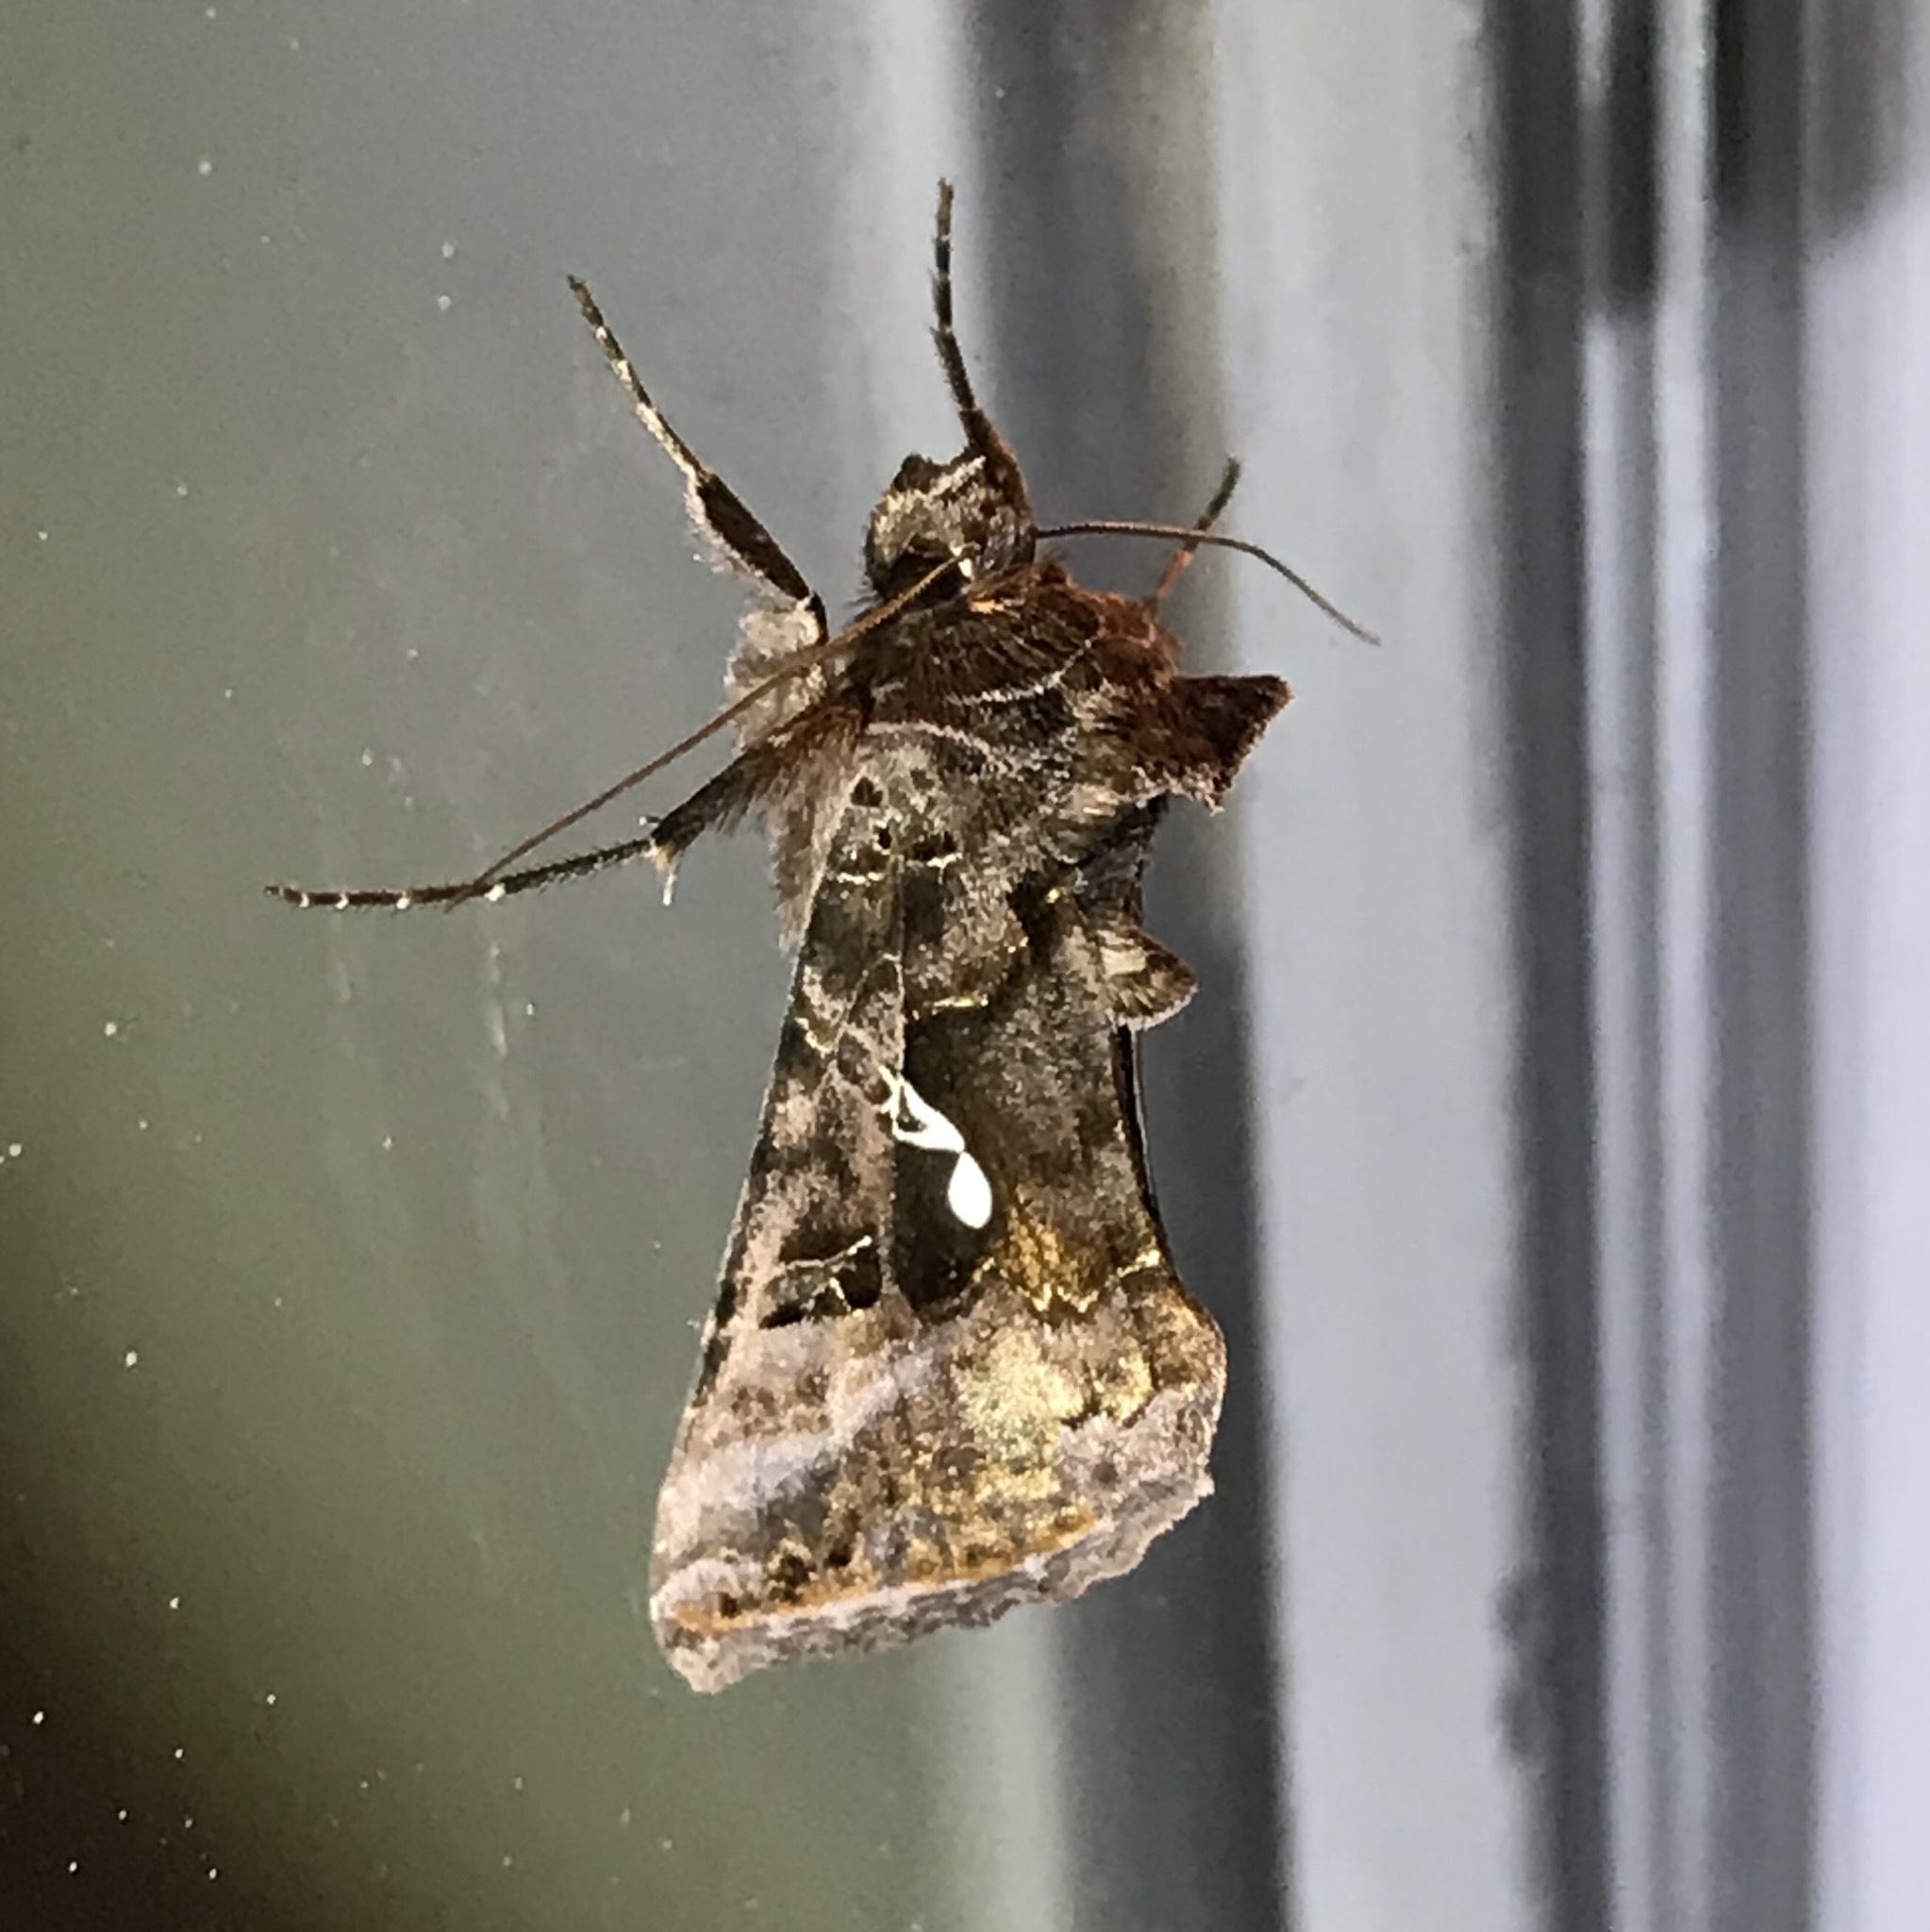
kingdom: Animalia
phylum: Arthropoda
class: Insecta
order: Lepidoptera
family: Noctuidae
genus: Autographa
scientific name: Autographa precationis
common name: Common looper moth
